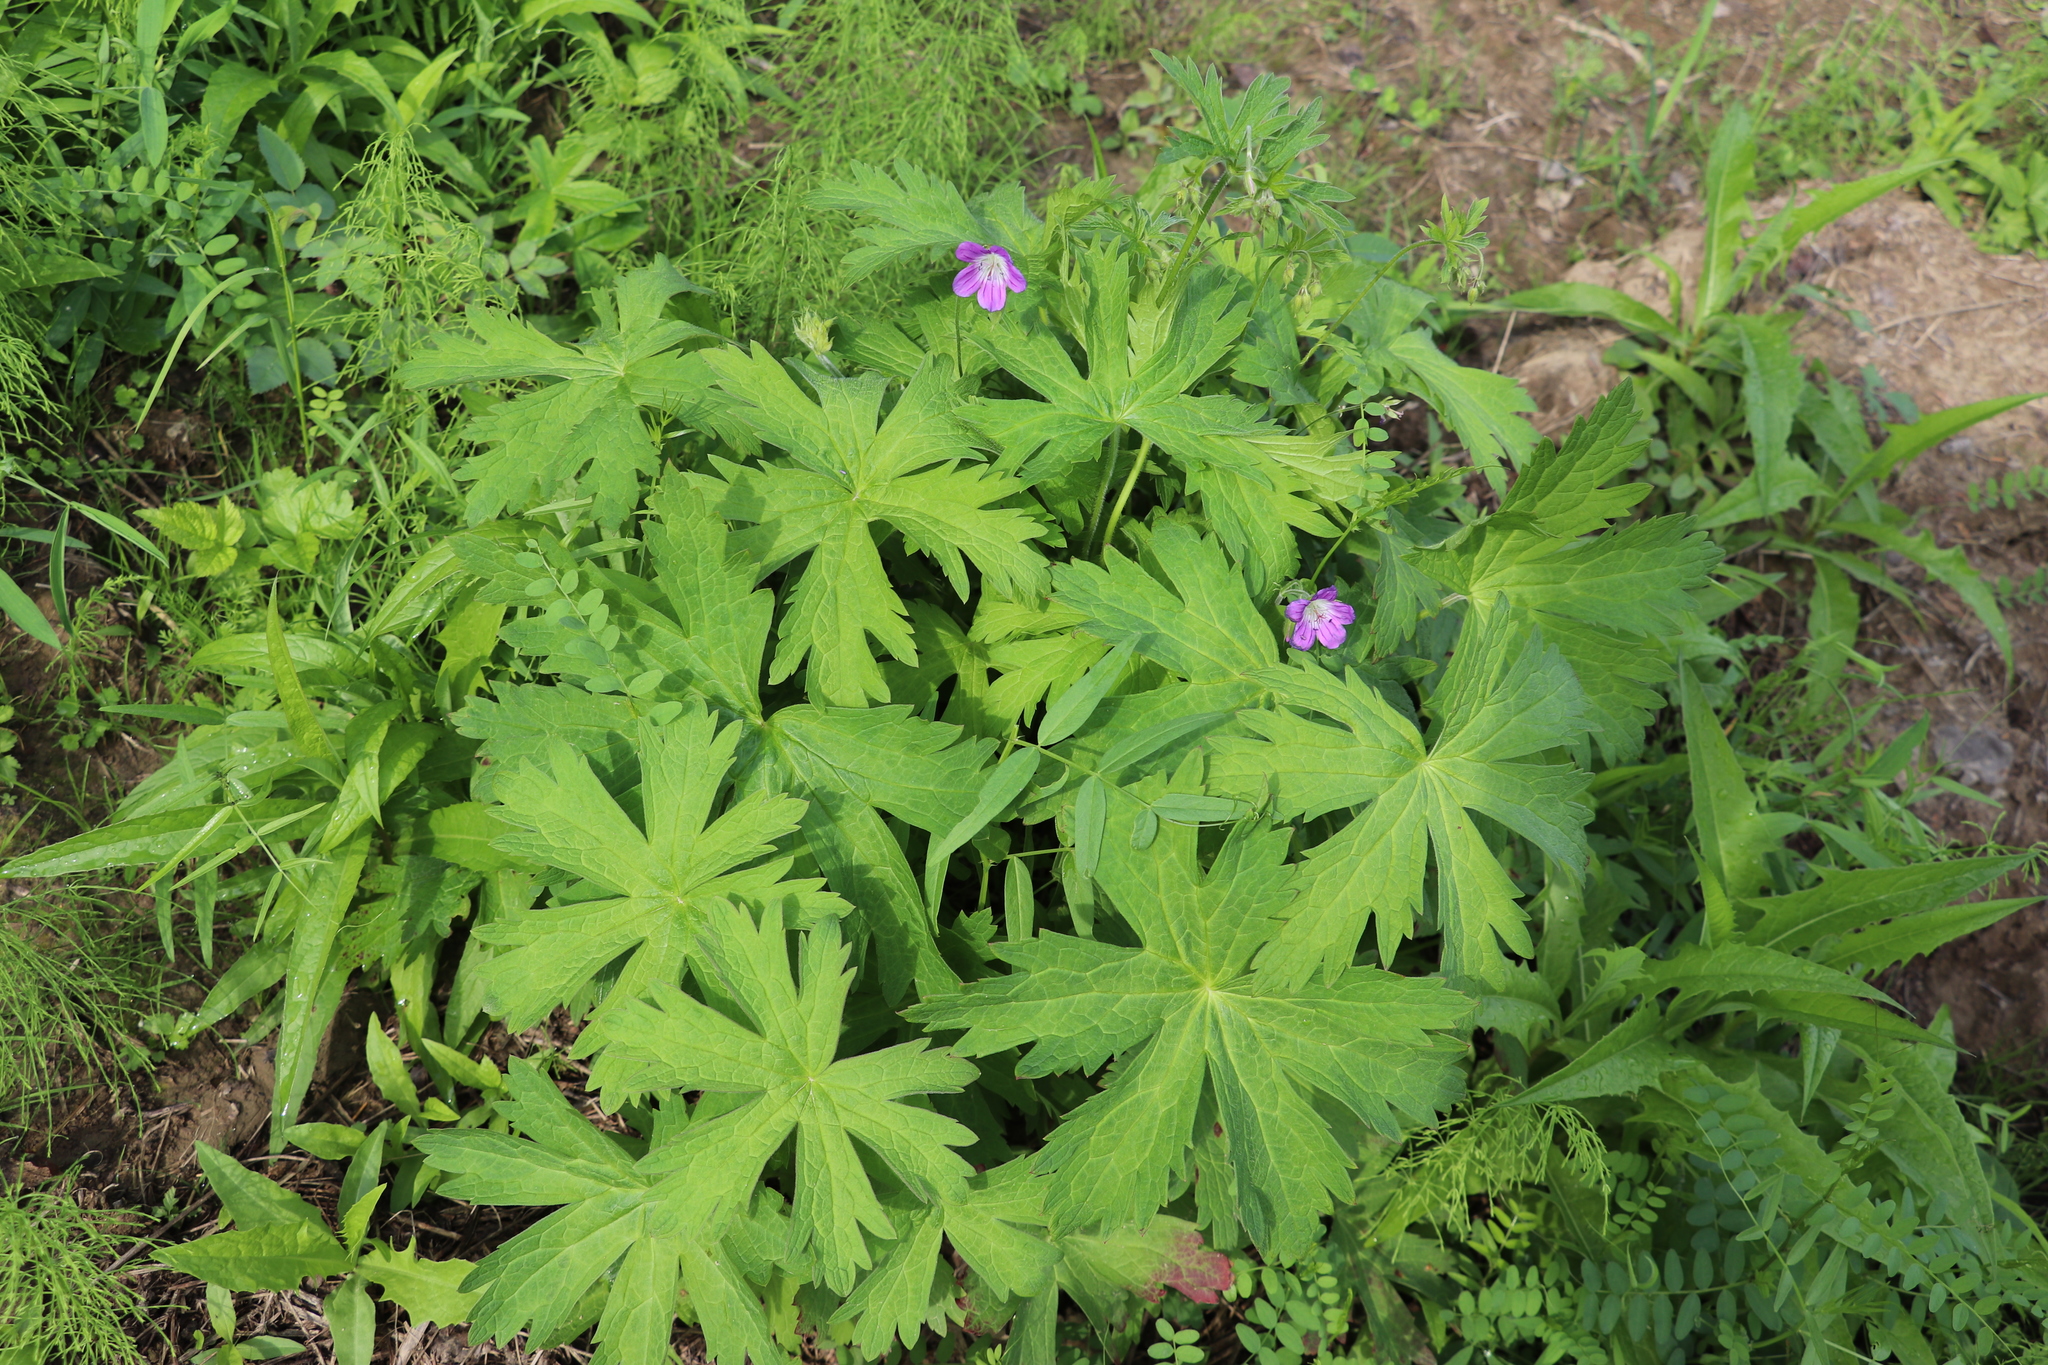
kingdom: Plantae
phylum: Tracheophyta
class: Magnoliopsida
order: Geraniales
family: Geraniaceae
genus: Geranium
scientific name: Geranium sylvaticum
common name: Wood crane's-bill
